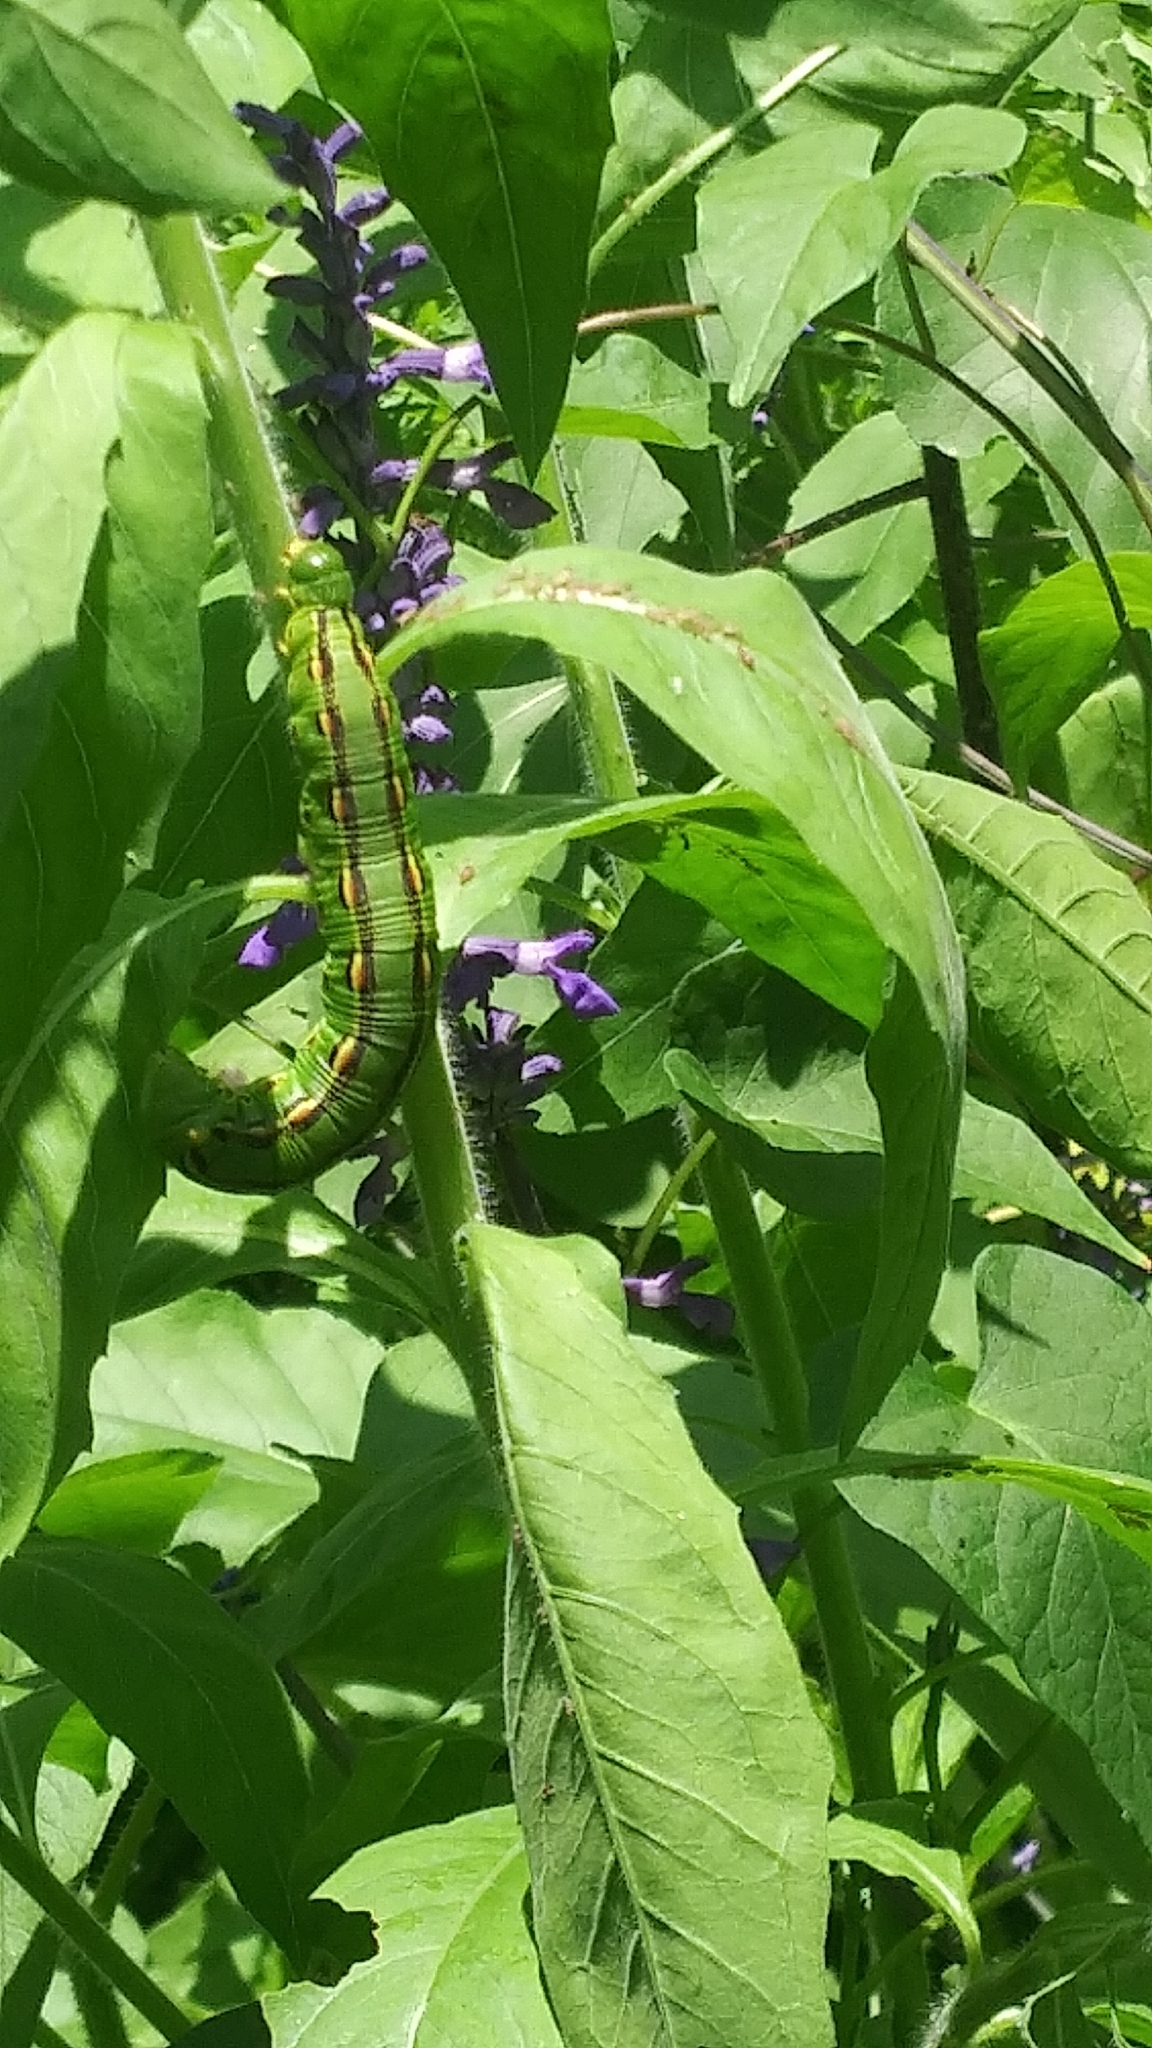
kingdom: Animalia
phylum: Arthropoda
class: Insecta
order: Lepidoptera
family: Sphingidae
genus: Hyles
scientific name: Hyles lineata
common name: White-lined sphinx
